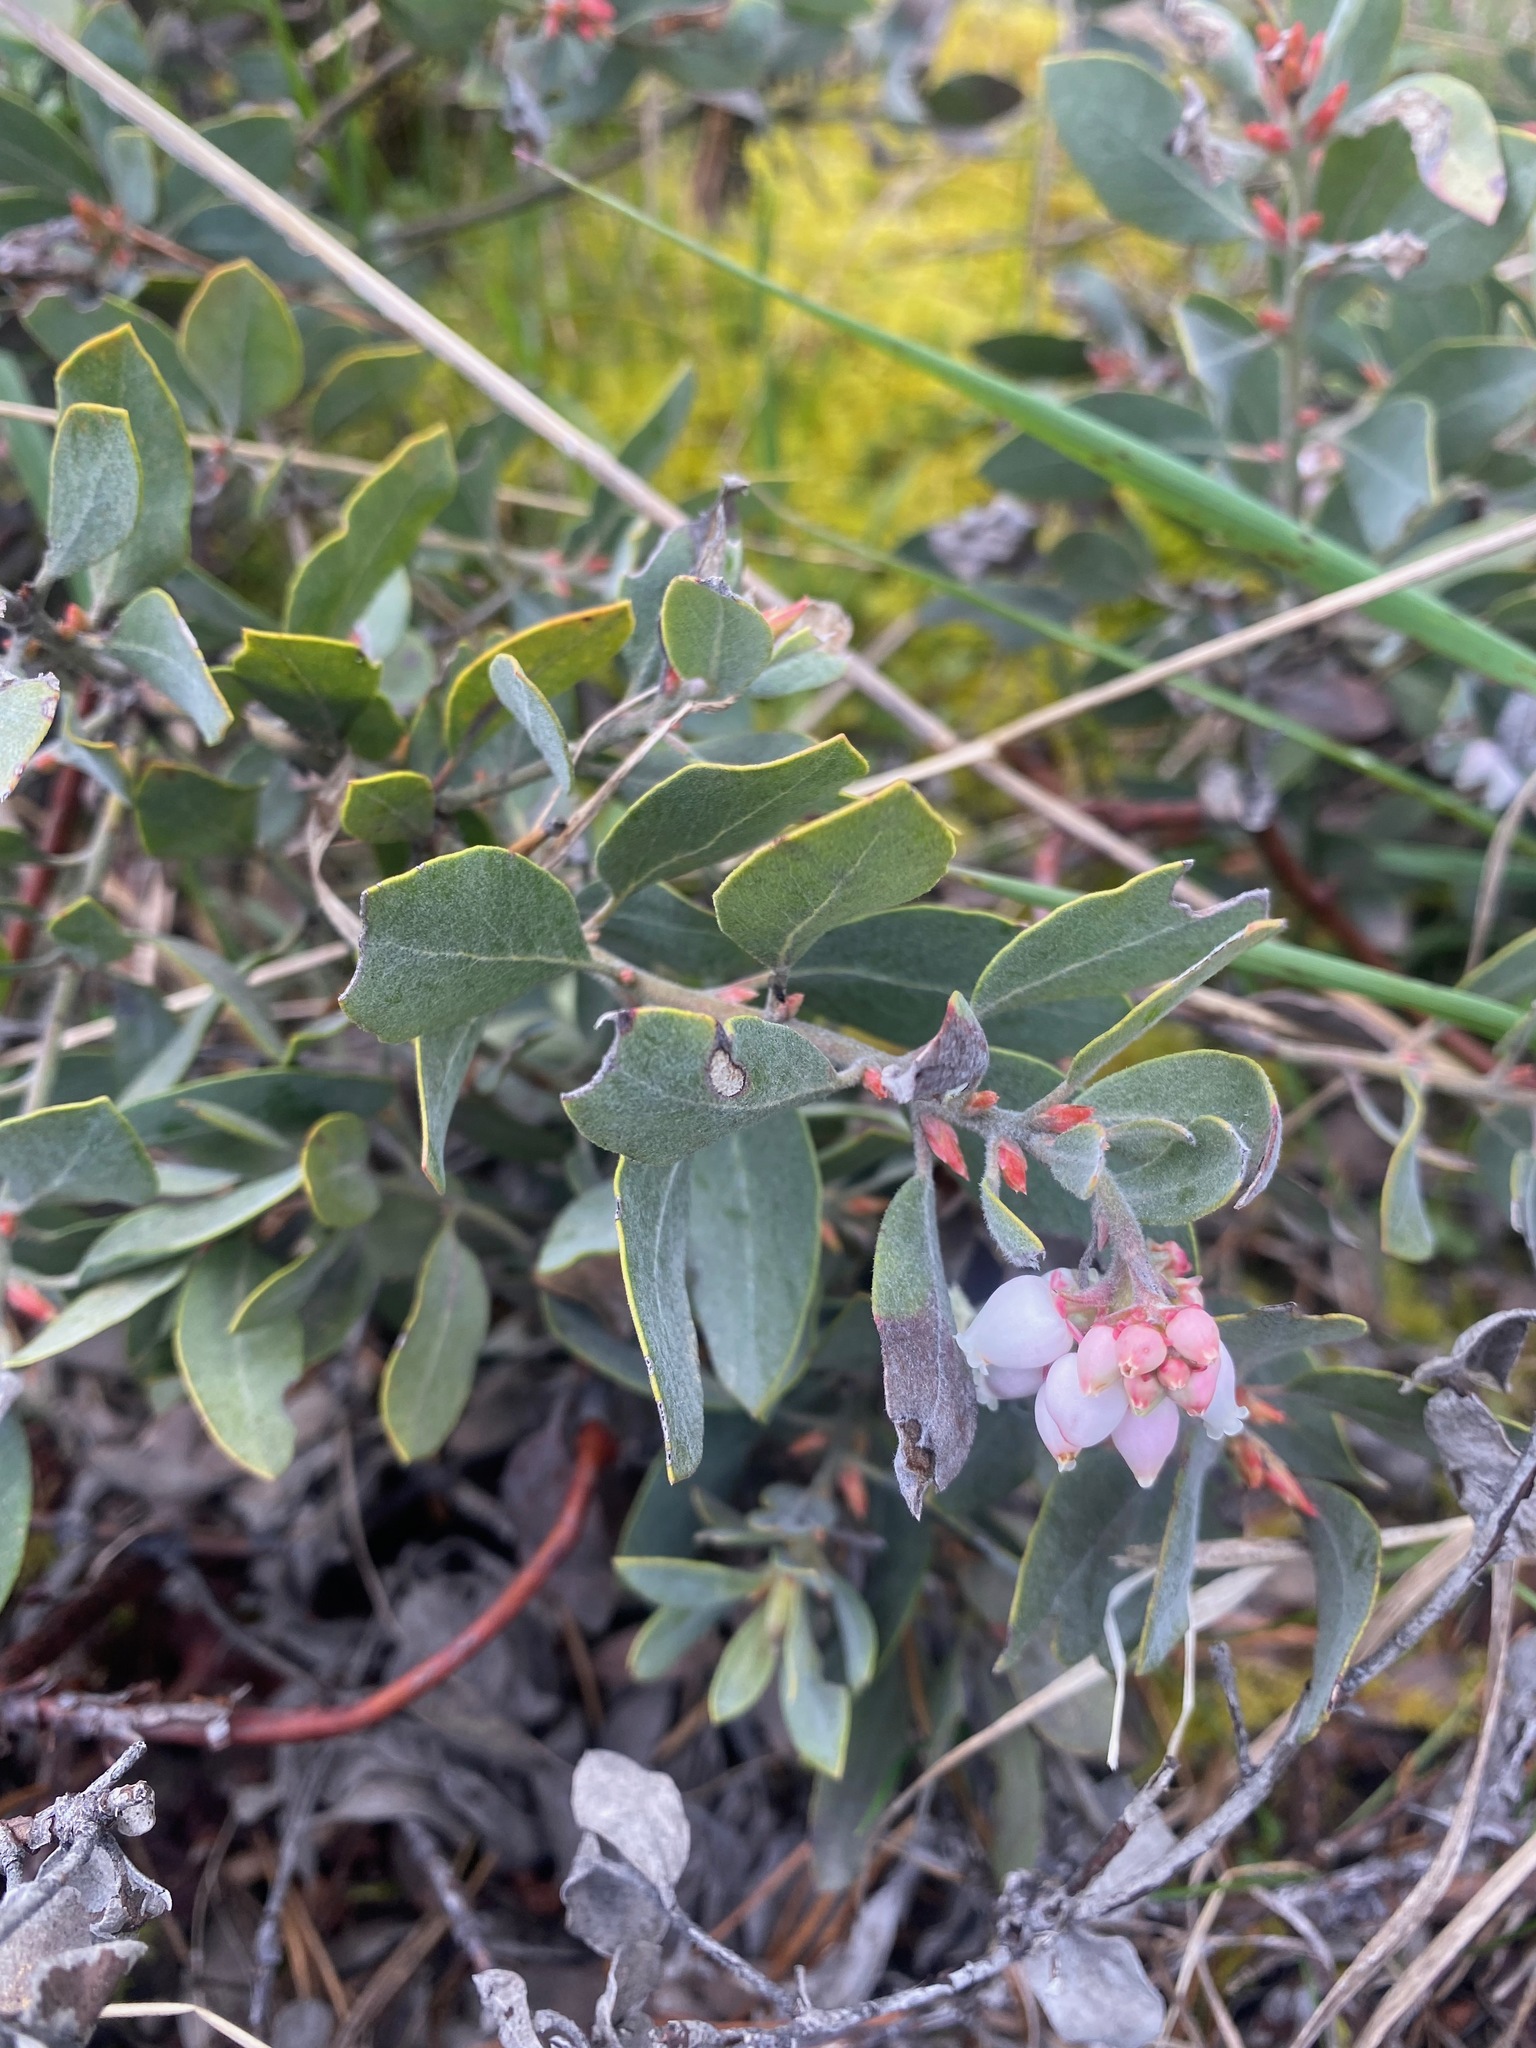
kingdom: Plantae
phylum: Tracheophyta
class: Magnoliopsida
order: Ericales
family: Ericaceae
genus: Arctostaphylos
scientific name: Arctostaphylos columbiana
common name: Bristly bearberry
